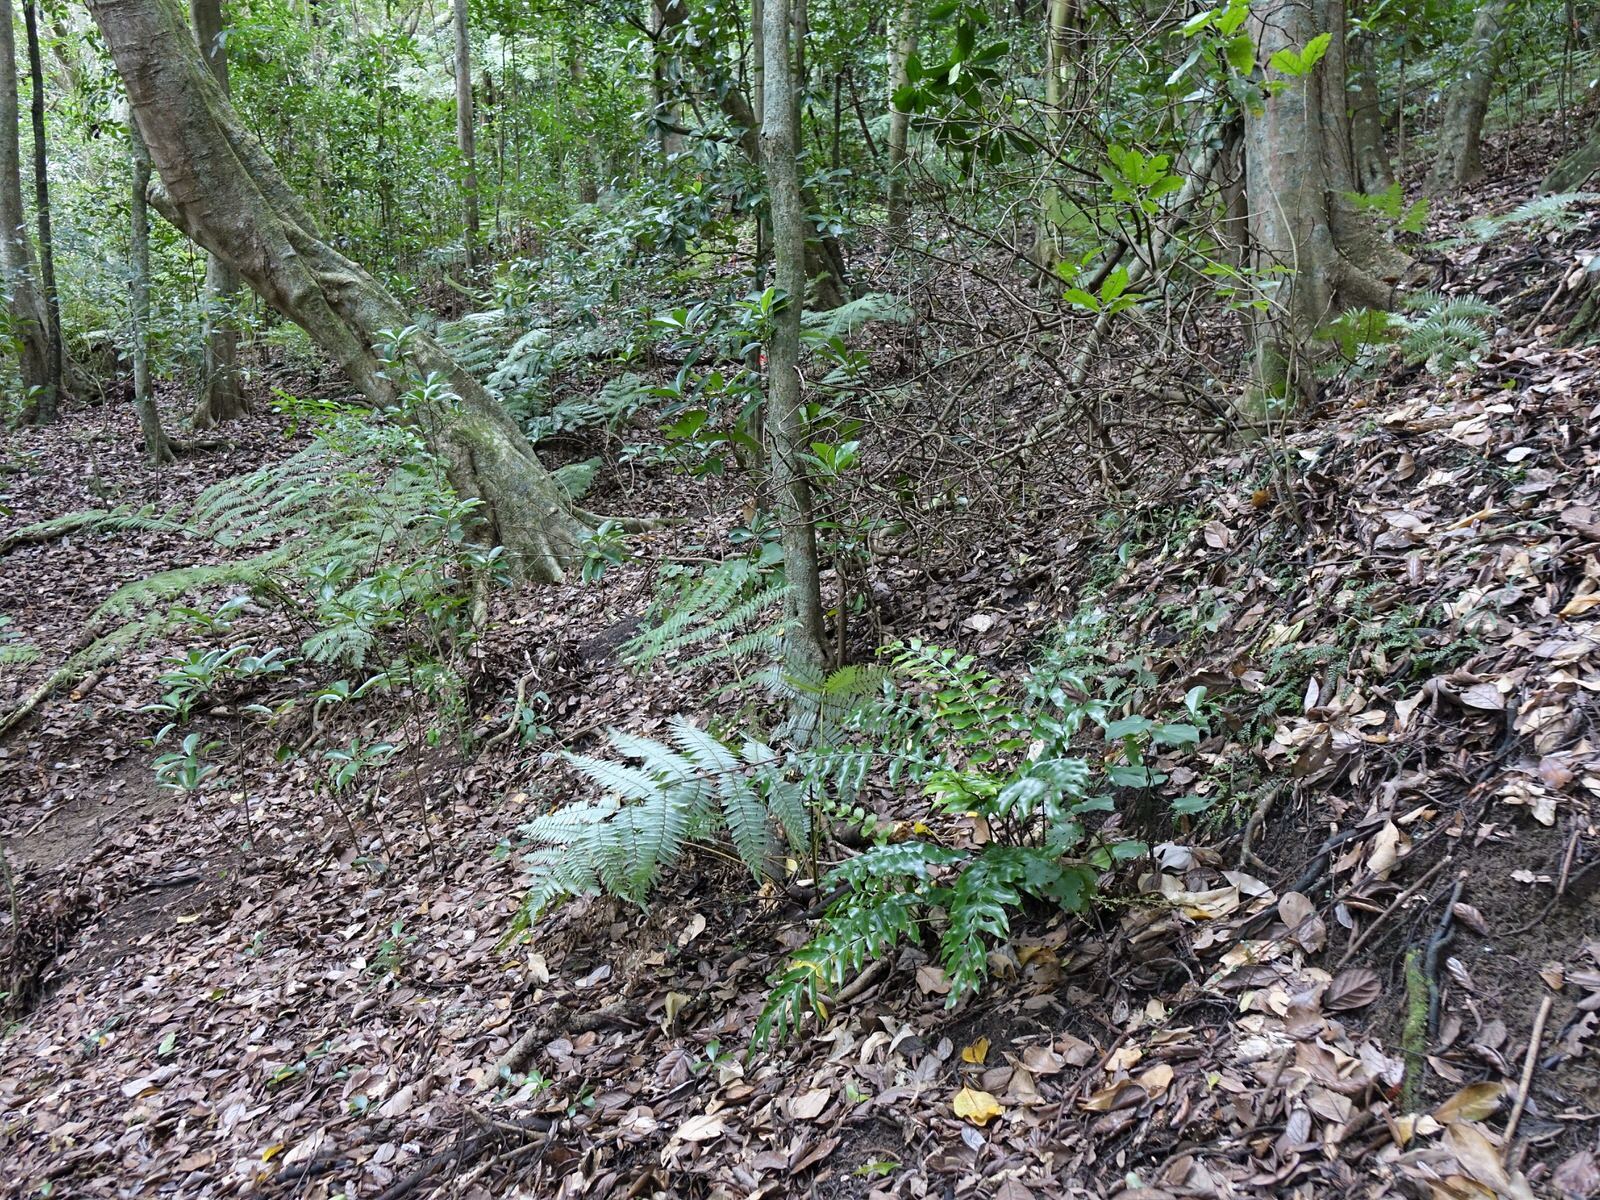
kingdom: Plantae
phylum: Tracheophyta
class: Polypodiopsida
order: Polypodiales
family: Aspleniaceae
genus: Asplenium
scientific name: Asplenium oblongifolium
